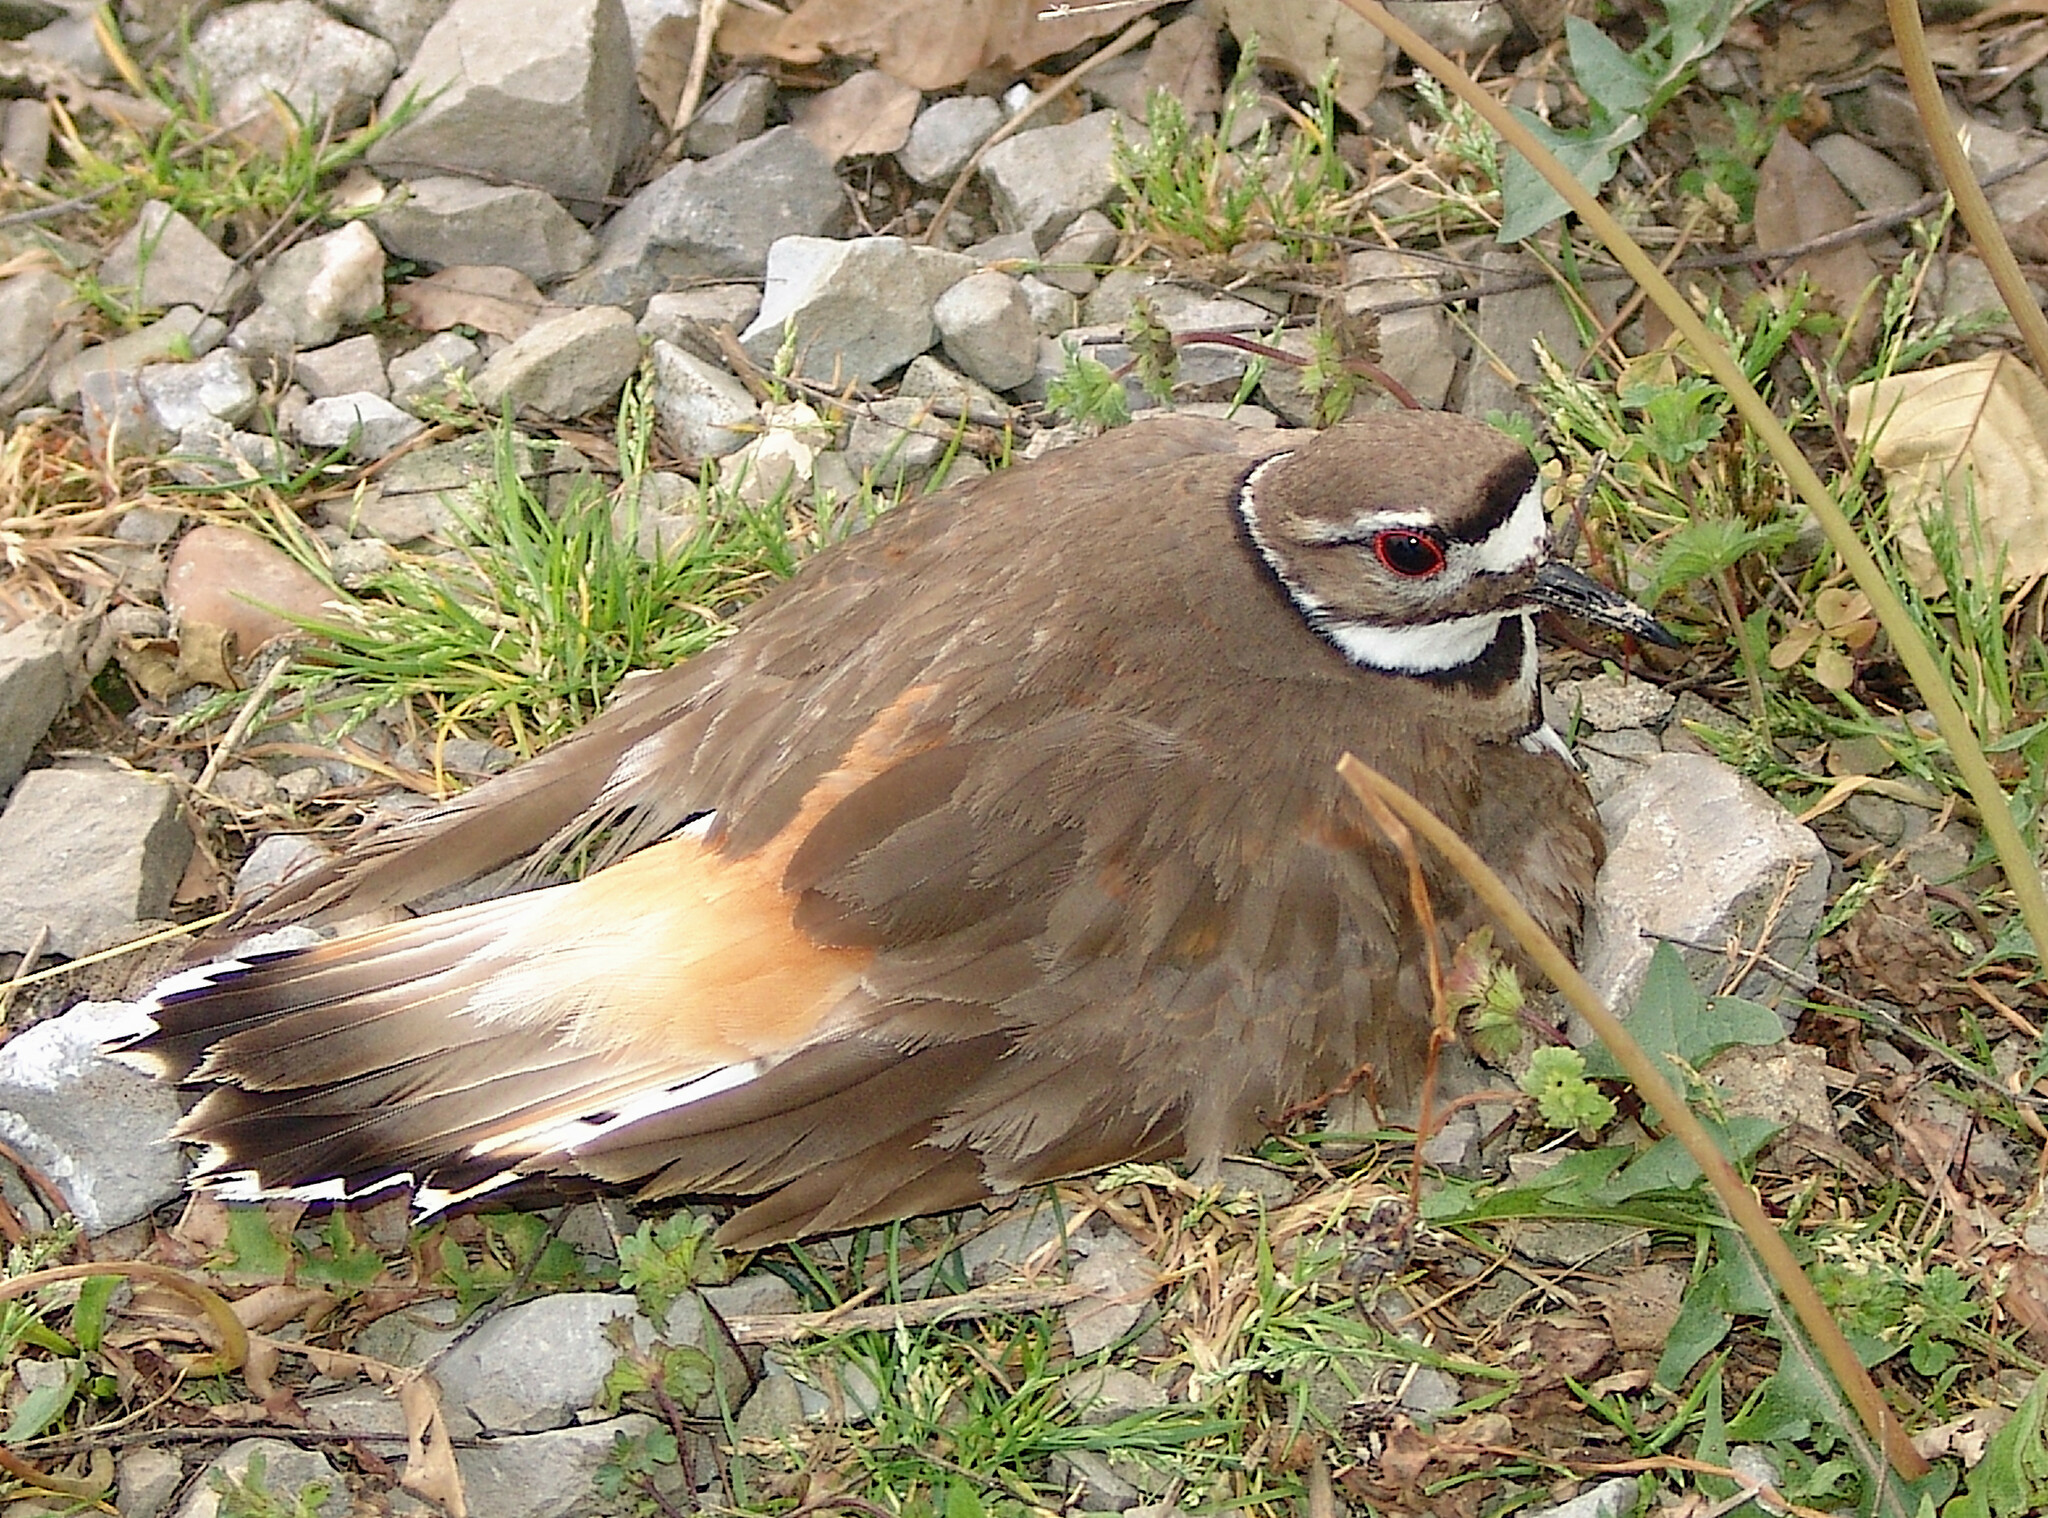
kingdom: Animalia
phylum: Chordata
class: Aves
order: Charadriiformes
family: Charadriidae
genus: Charadrius
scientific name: Charadrius vociferus
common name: Killdeer
